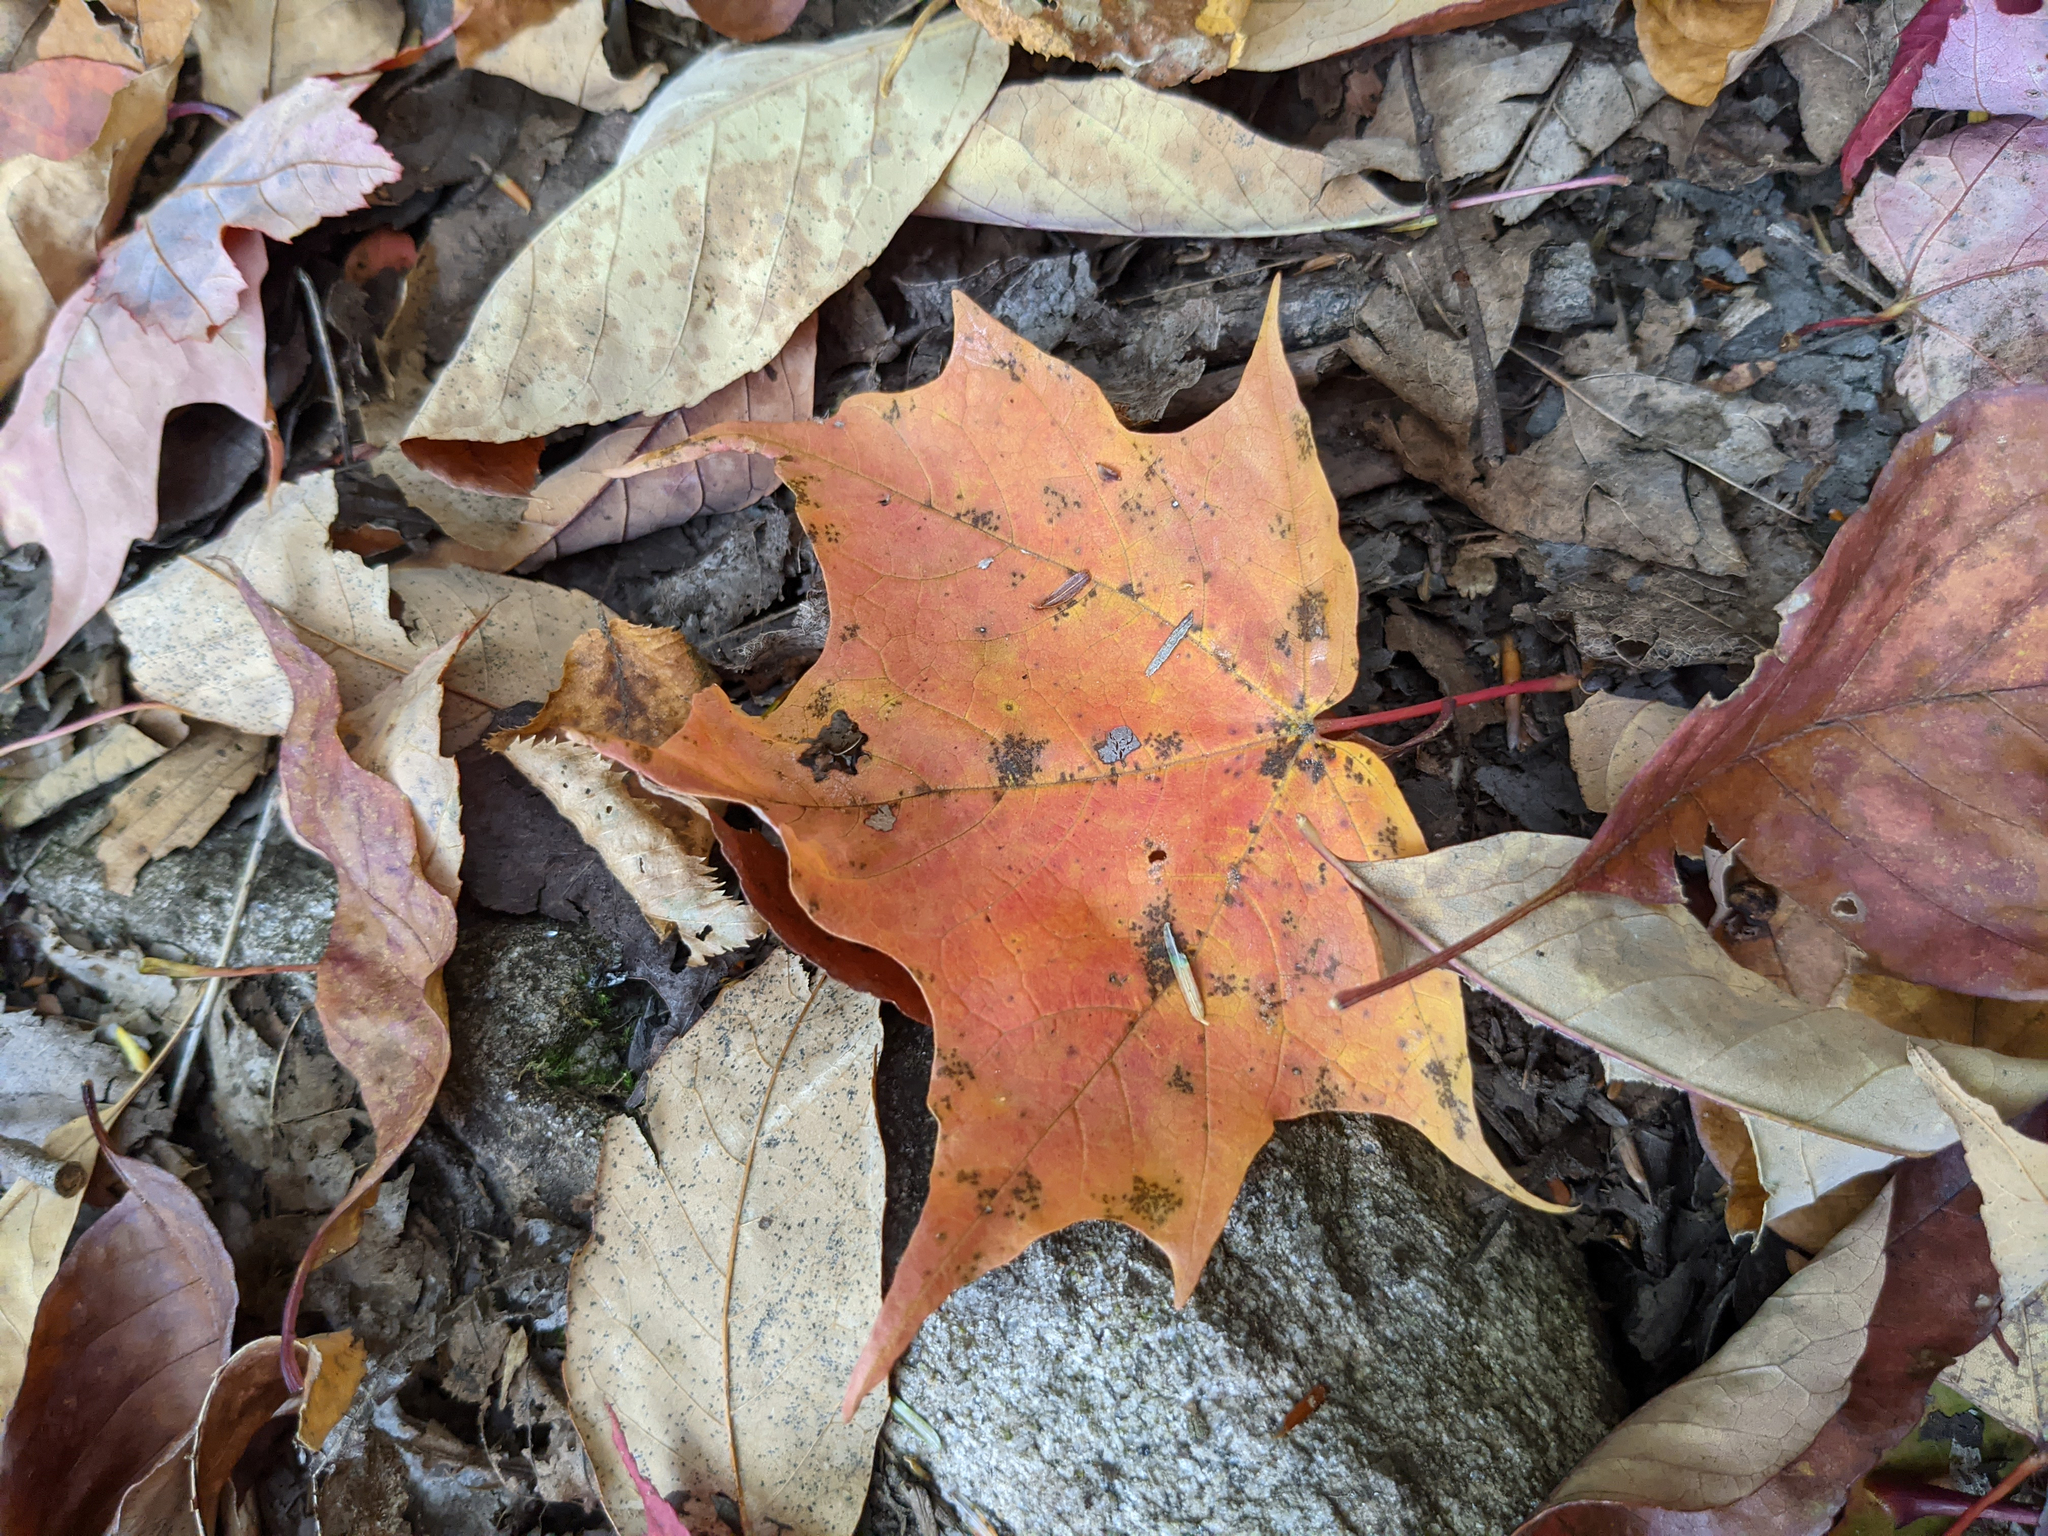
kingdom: Plantae
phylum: Tracheophyta
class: Magnoliopsida
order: Sapindales
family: Sapindaceae
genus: Acer
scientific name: Acer saccharum
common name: Sugar maple
